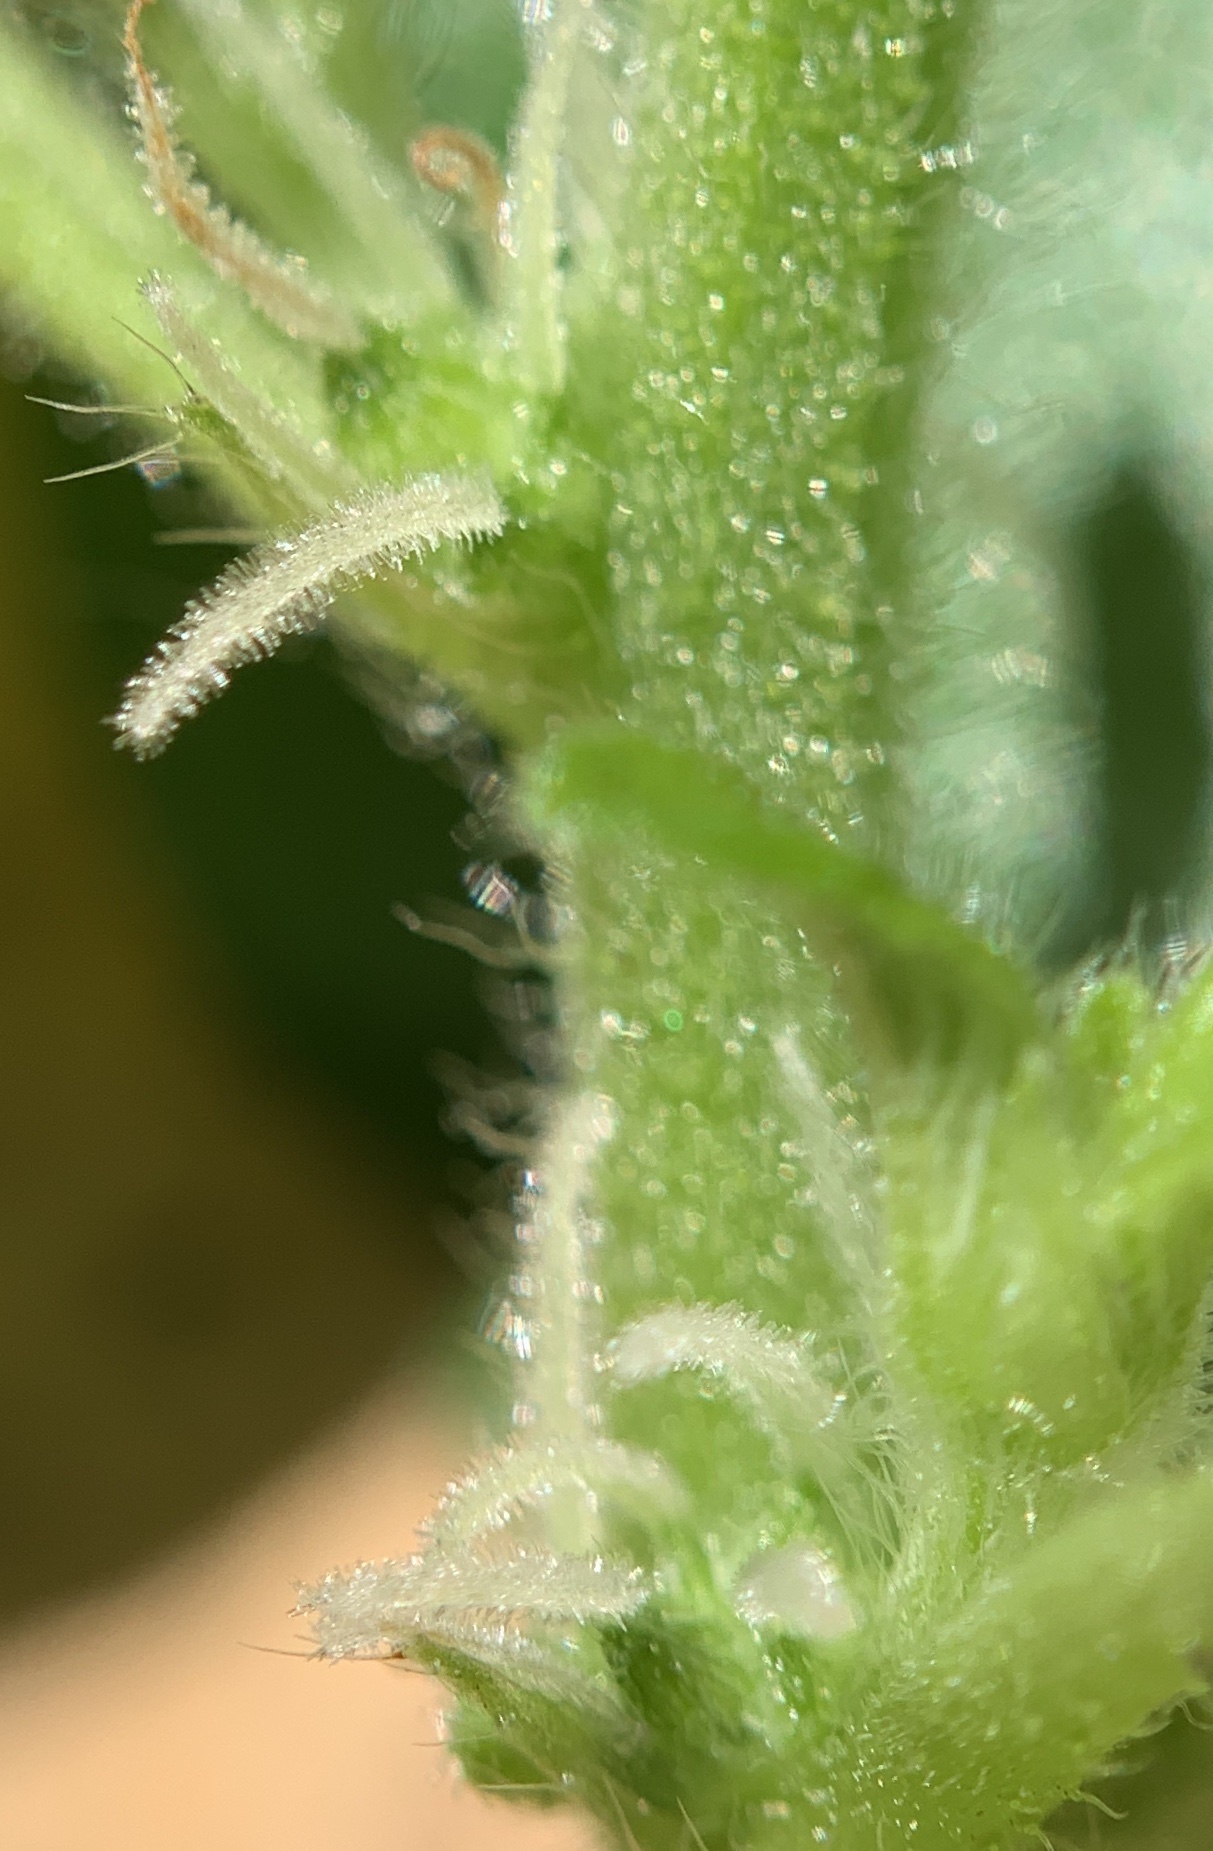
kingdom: Plantae
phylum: Tracheophyta
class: Magnoliopsida
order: Rosales
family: Urticaceae
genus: Pouzolzia
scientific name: Pouzolzia zeylanica
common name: Graceful pouzolzsbush
